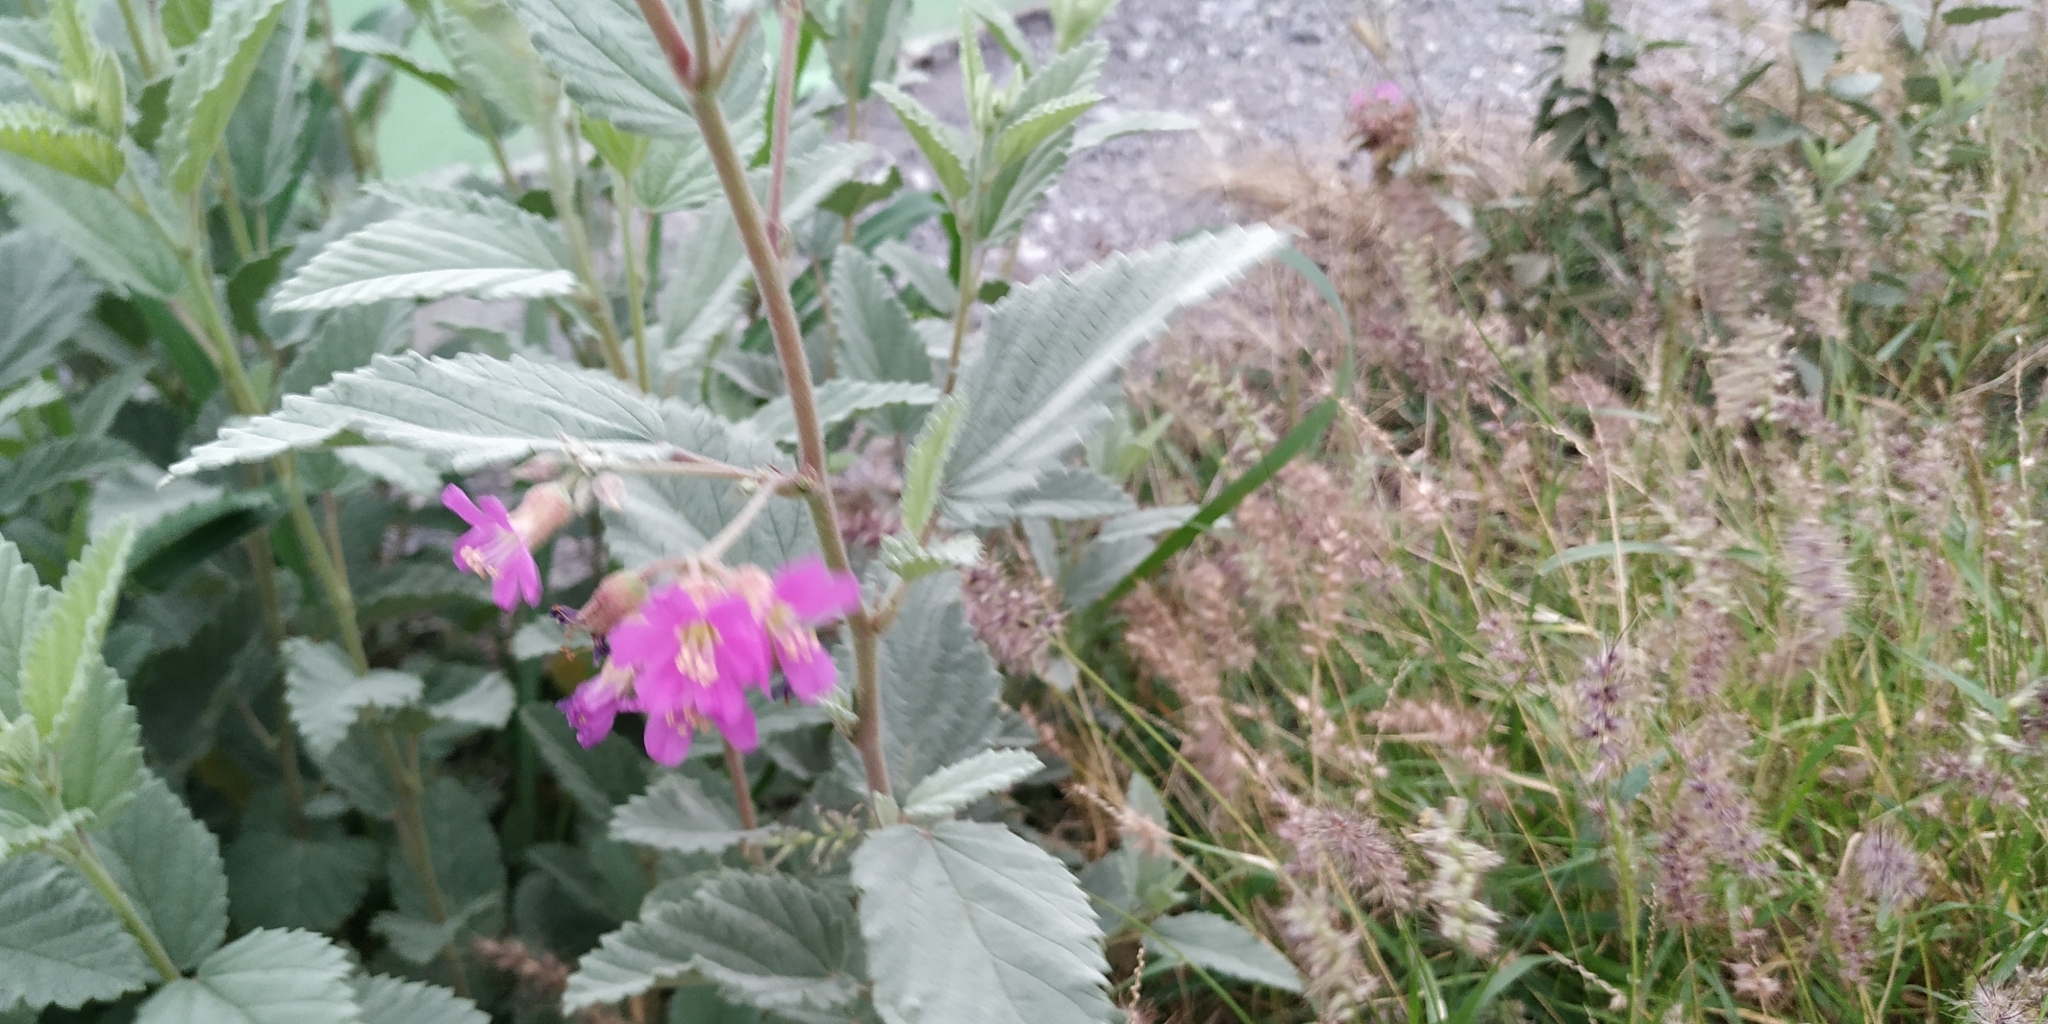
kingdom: Plantae
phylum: Tracheophyta
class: Magnoliopsida
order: Malvales
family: Malvaceae
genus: Melochia
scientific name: Melochia tomentosa
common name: Black torch
